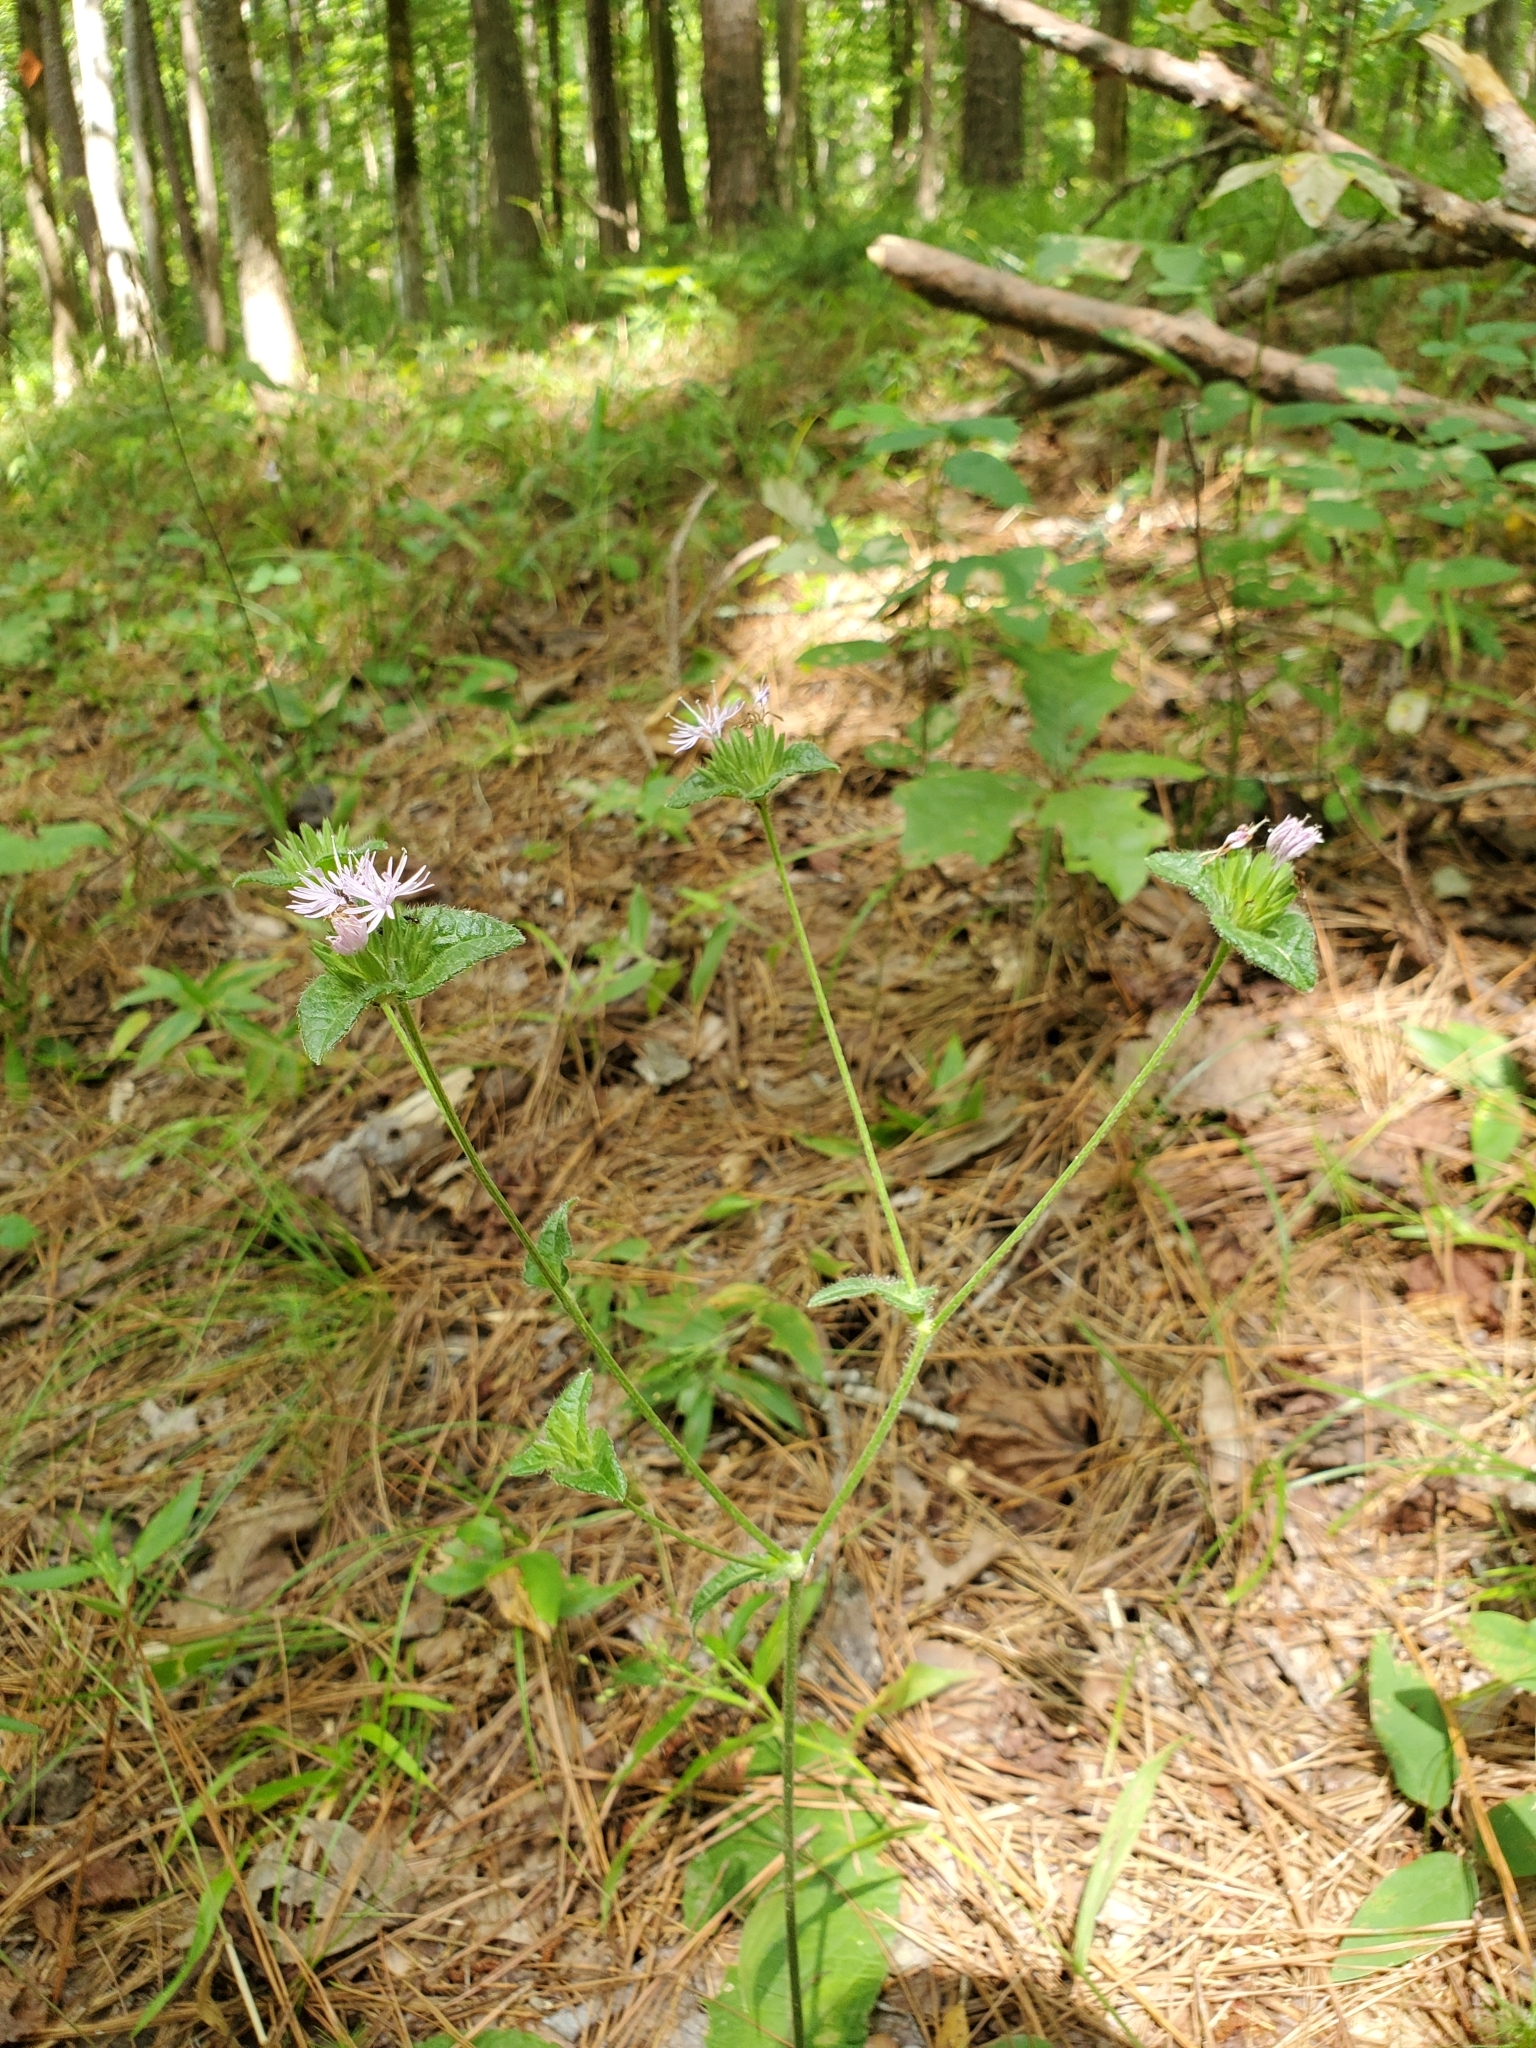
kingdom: Plantae
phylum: Tracheophyta
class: Magnoliopsida
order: Asterales
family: Asteraceae
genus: Elephantopus
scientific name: Elephantopus tomentosus
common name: Tobacco-weed
